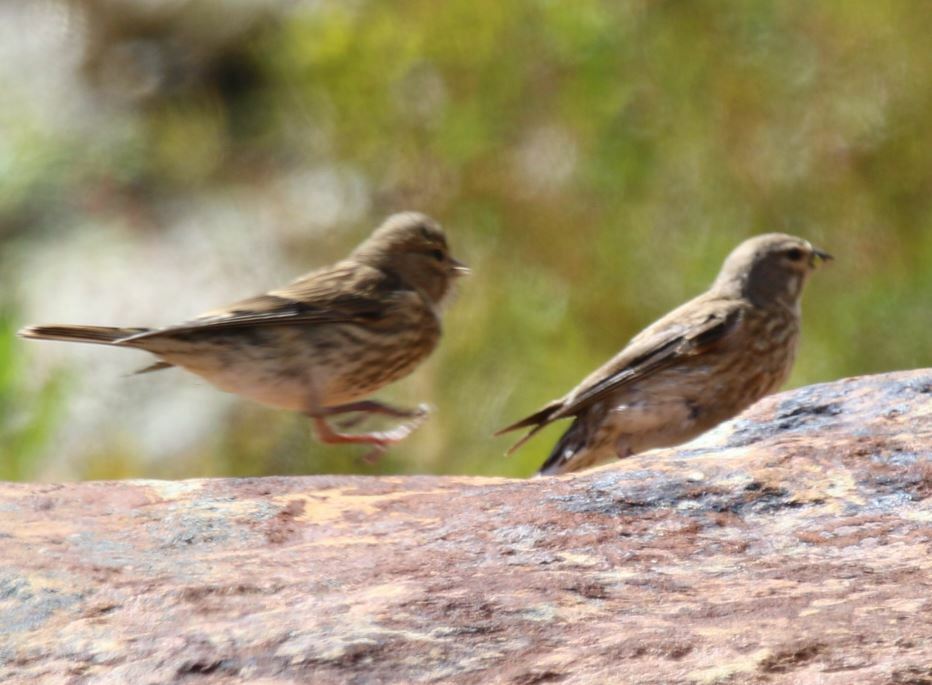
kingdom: Animalia
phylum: Chordata
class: Aves
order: Passeriformes
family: Fringillidae
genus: Linaria
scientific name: Linaria cannabina
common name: Common linnet
